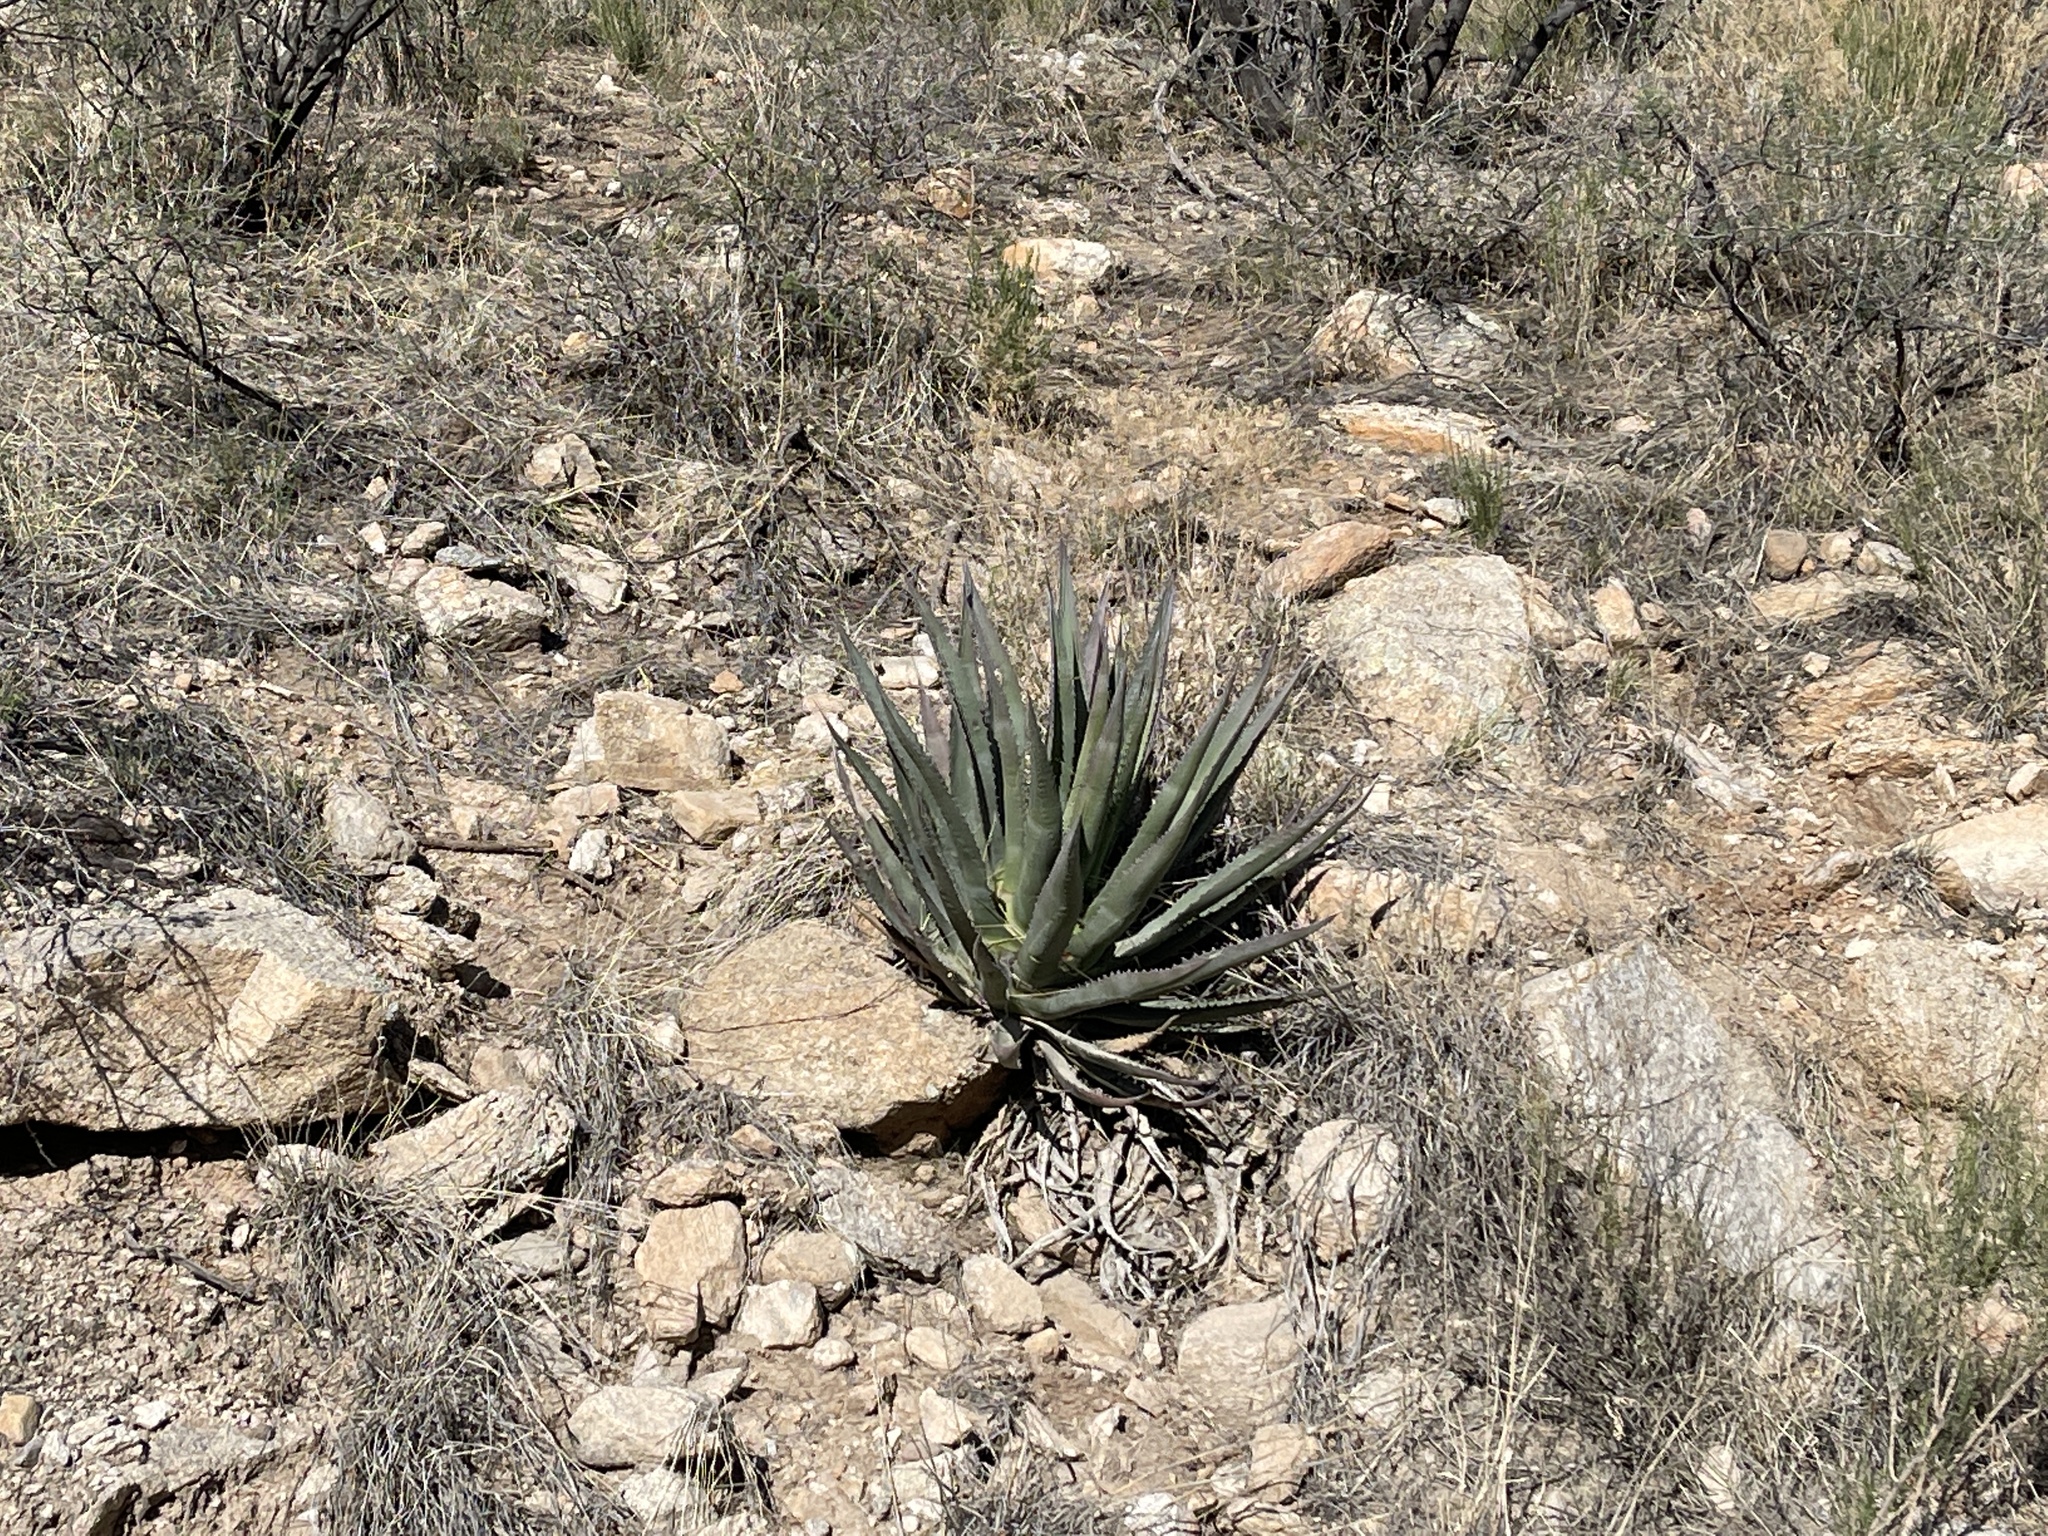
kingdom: Plantae
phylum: Tracheophyta
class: Liliopsida
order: Asparagales
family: Asparagaceae
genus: Agave
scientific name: Agave palmeri
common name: Palmer agave
